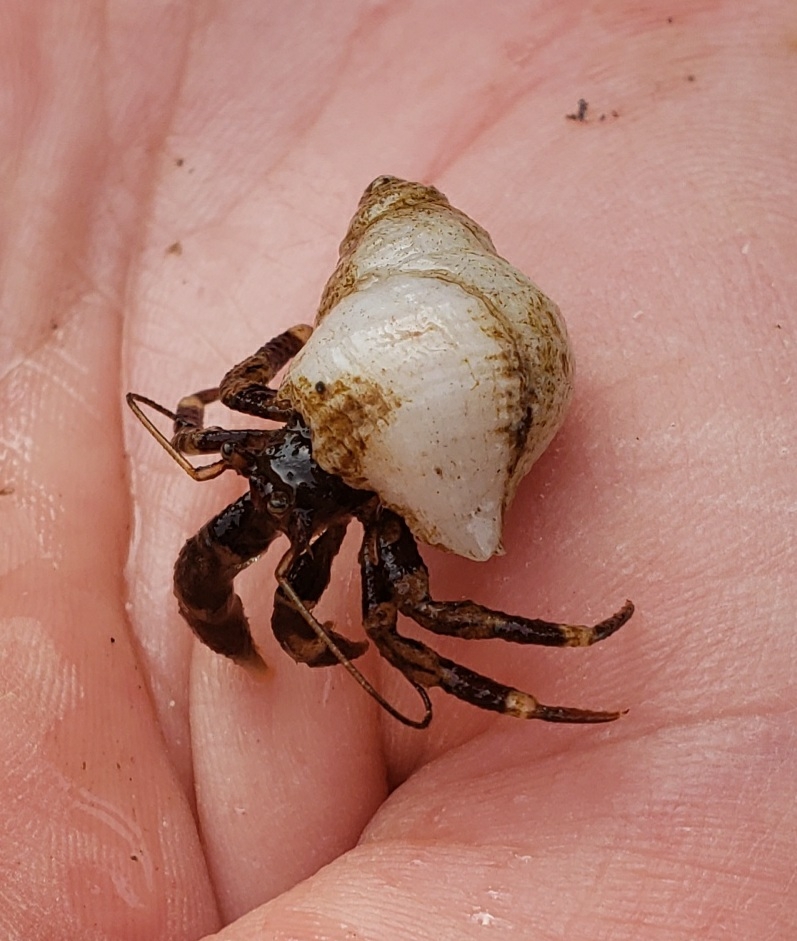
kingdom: Animalia
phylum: Arthropoda
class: Malacostraca
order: Decapoda
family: Paguridae
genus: Pagurus
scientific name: Pagurus hirsutiusculus
